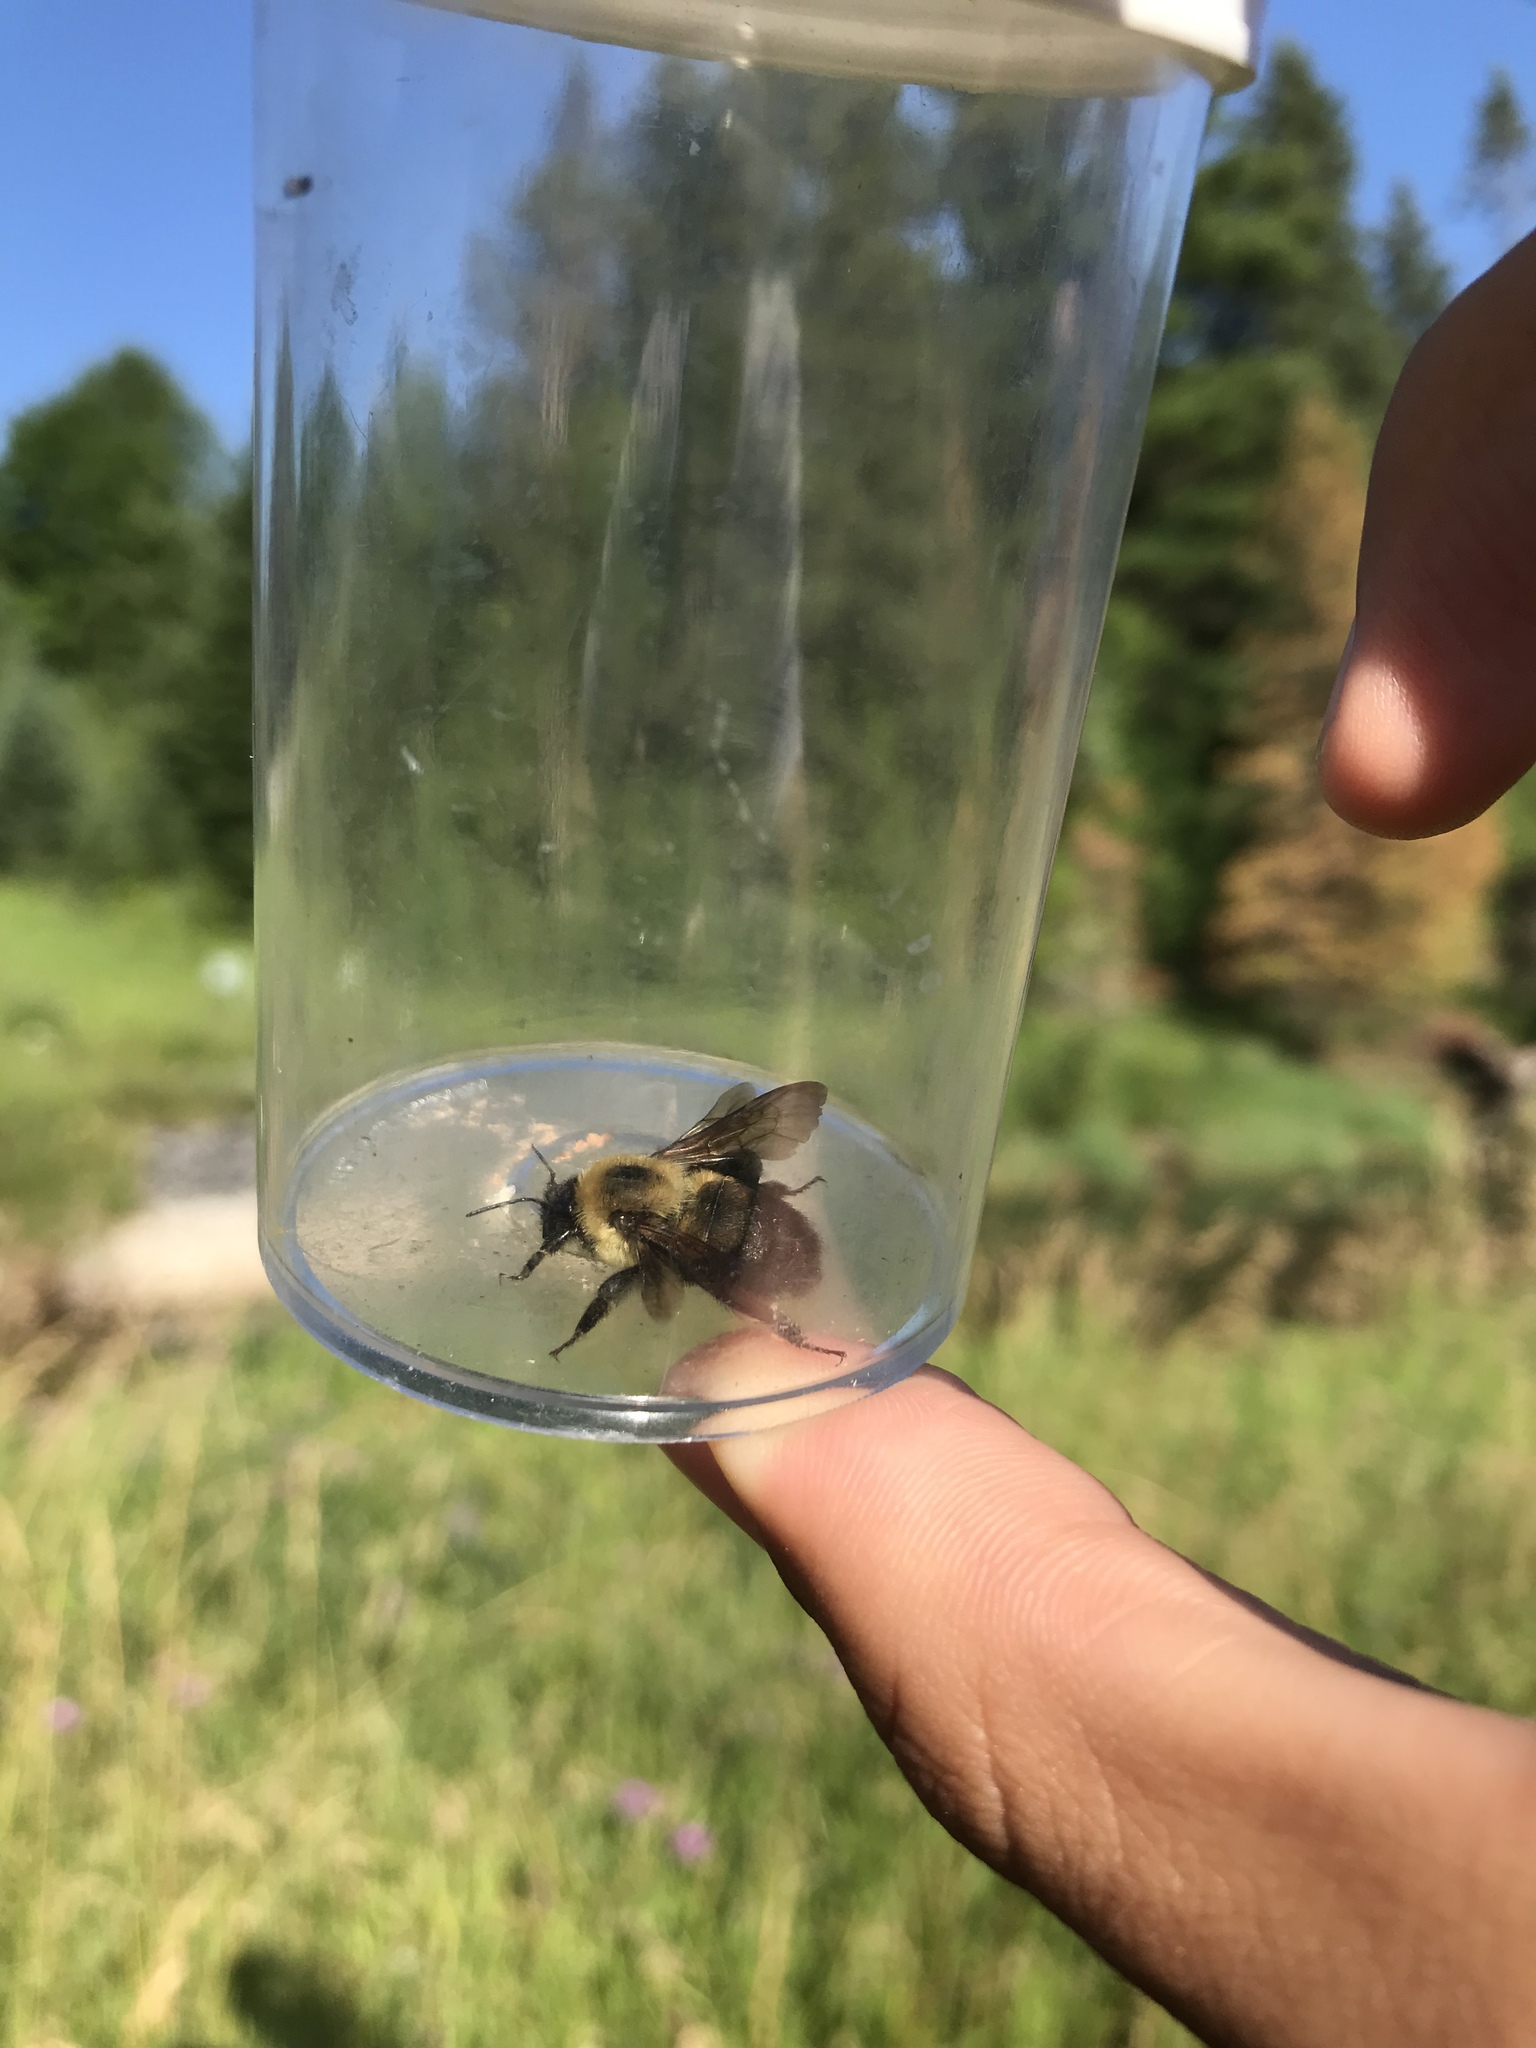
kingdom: Animalia
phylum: Arthropoda
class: Insecta
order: Hymenoptera
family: Apidae
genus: Bombus
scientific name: Bombus griseocollis
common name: Brown-belted bumble bee
